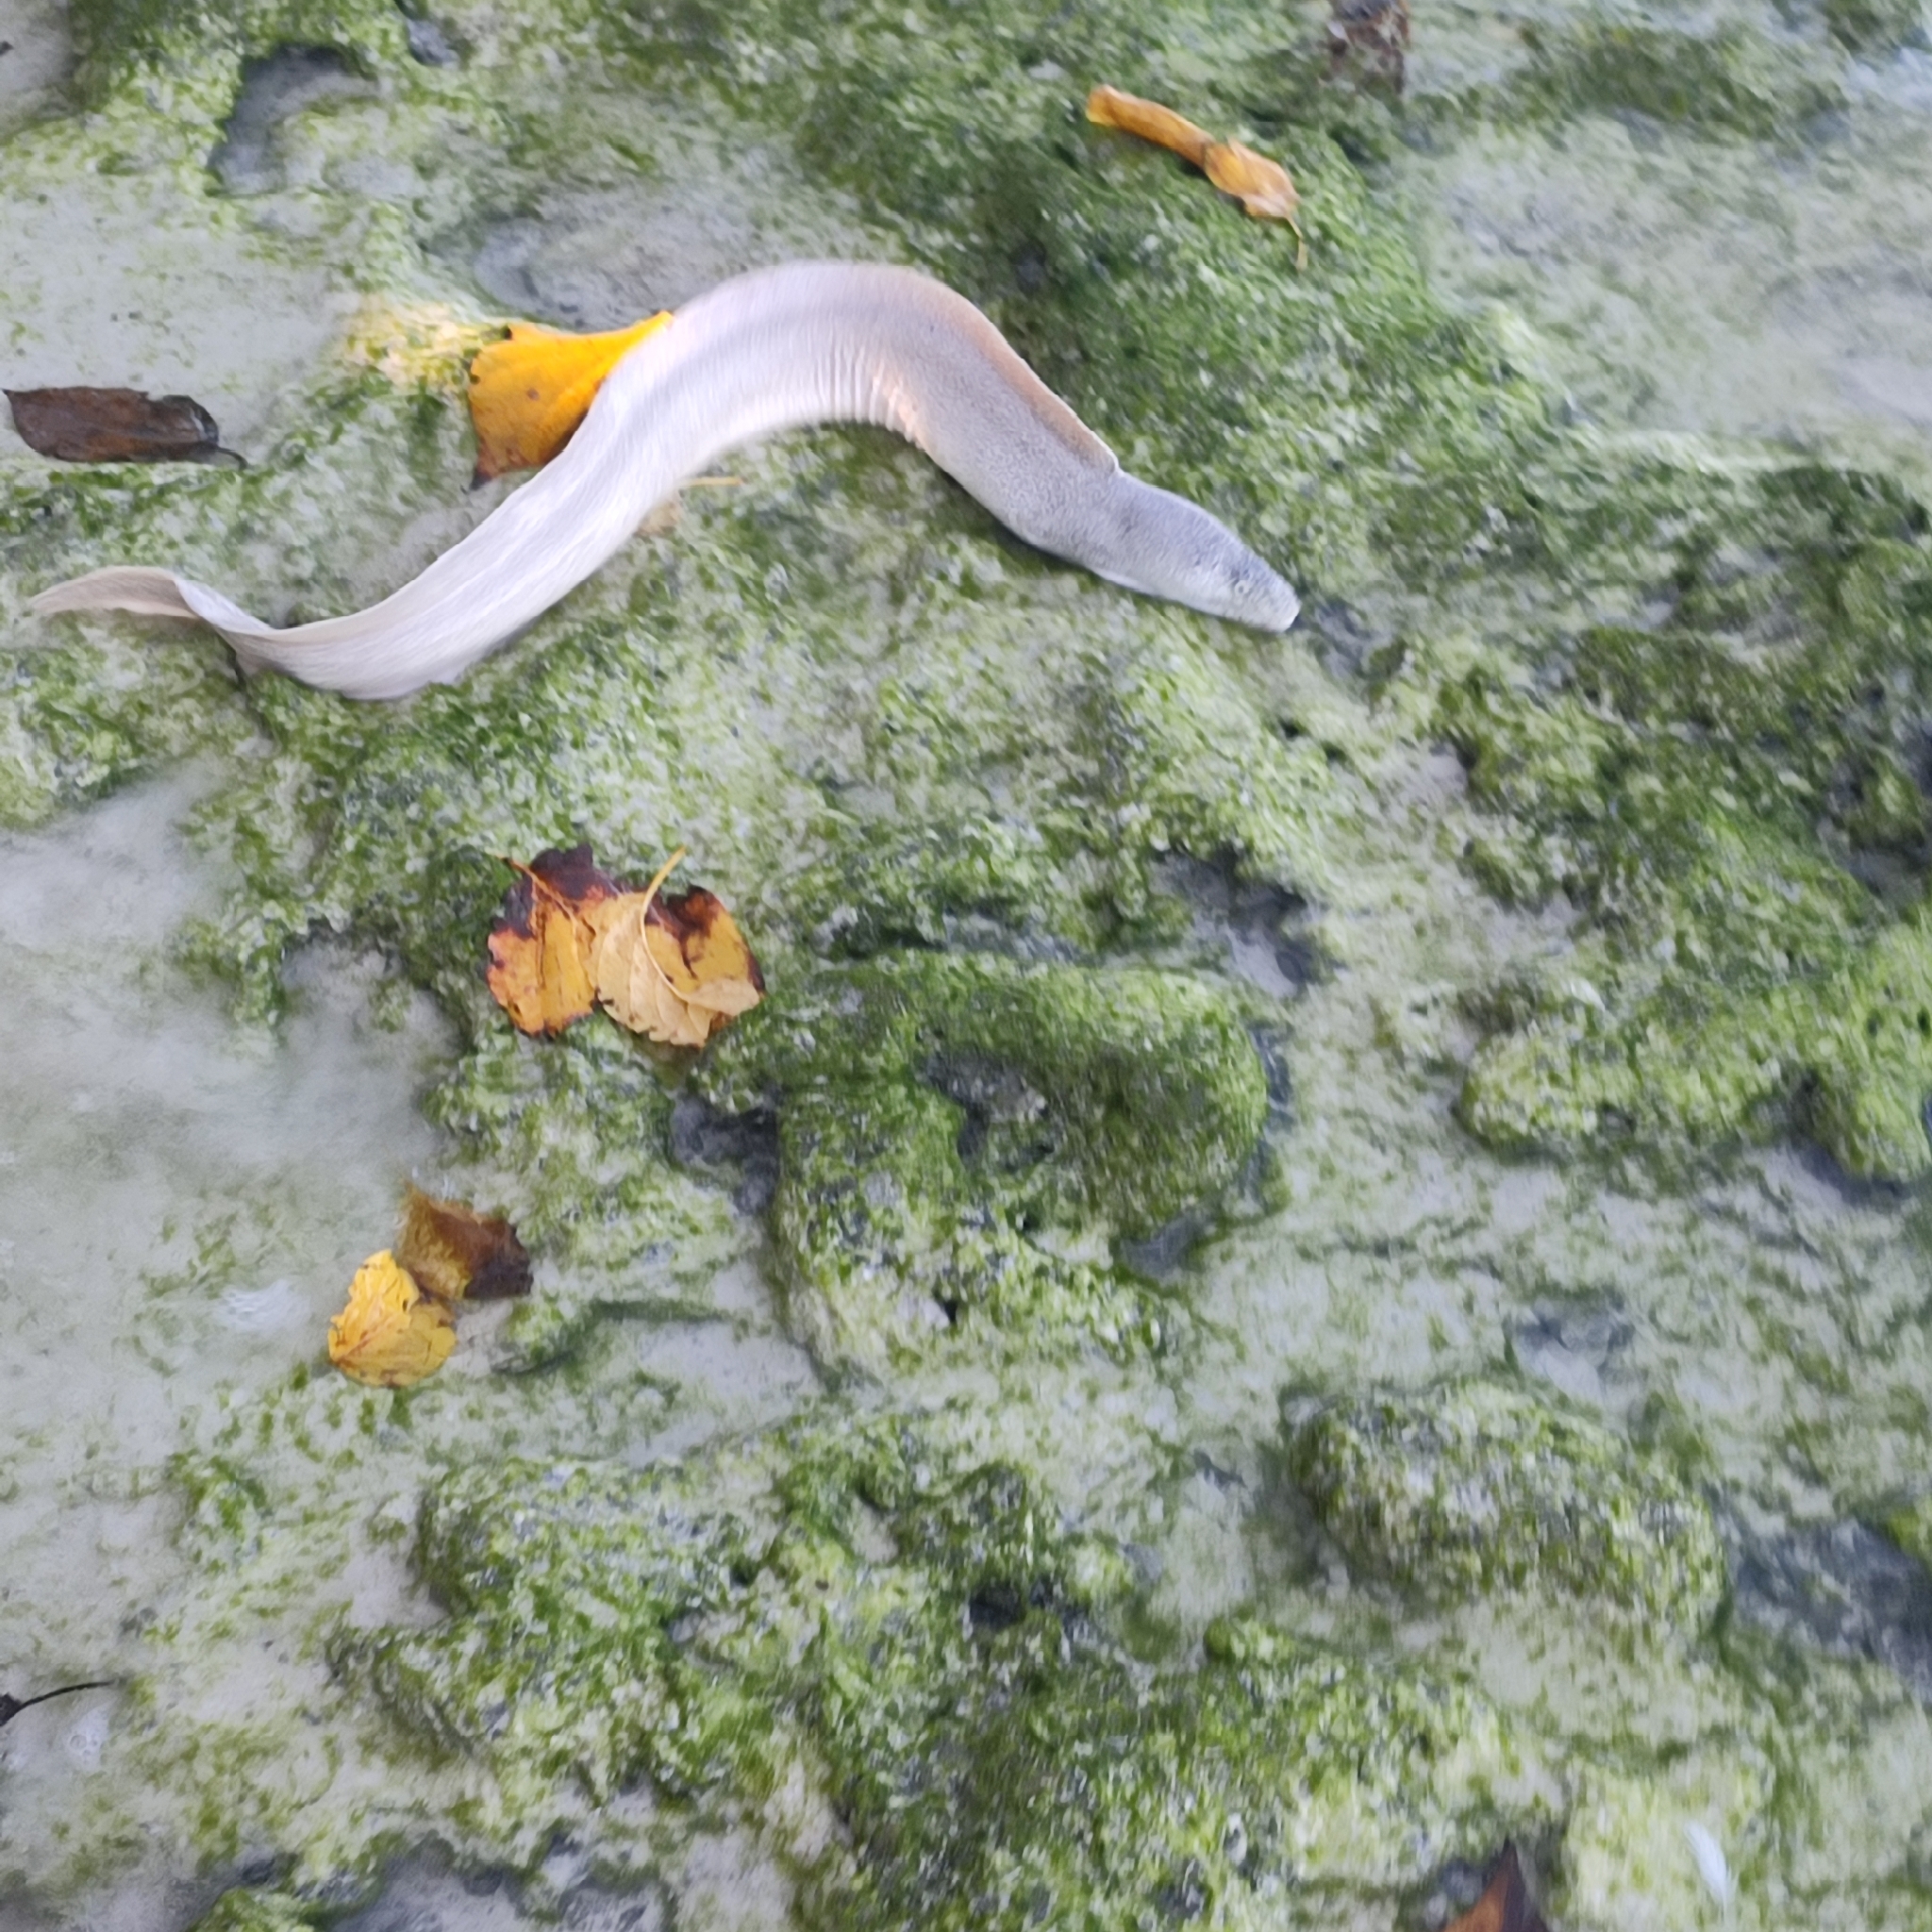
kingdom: Animalia
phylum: Chordata
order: Anguilliformes
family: Muraenidae
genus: Gymnothorax
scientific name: Gymnothorax pictus
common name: Peppered moray
